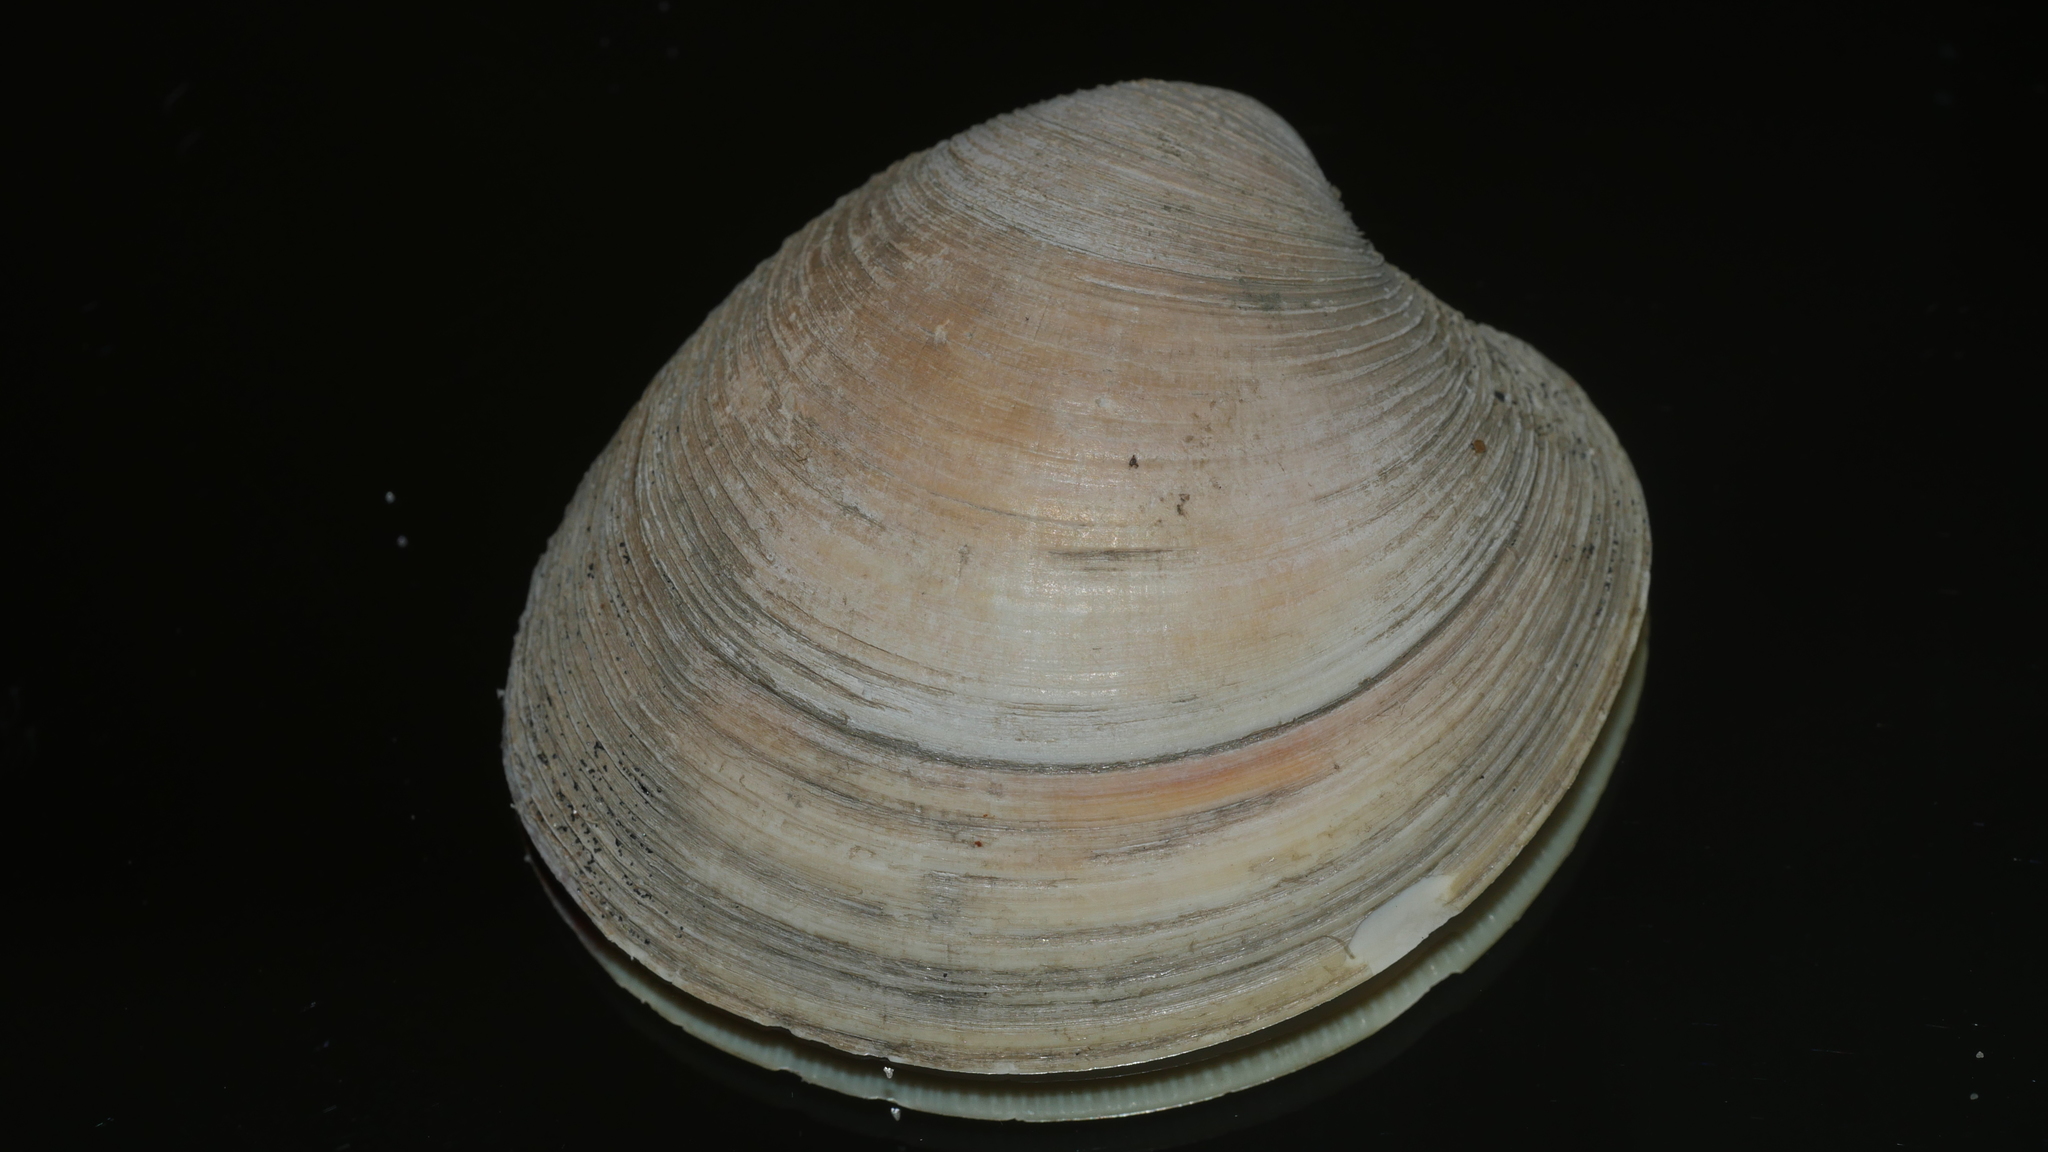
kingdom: Animalia
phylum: Mollusca
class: Bivalvia
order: Venerida
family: Veneridae
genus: Mercenaria
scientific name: Mercenaria mercenaria
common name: American hard-shelled clam
